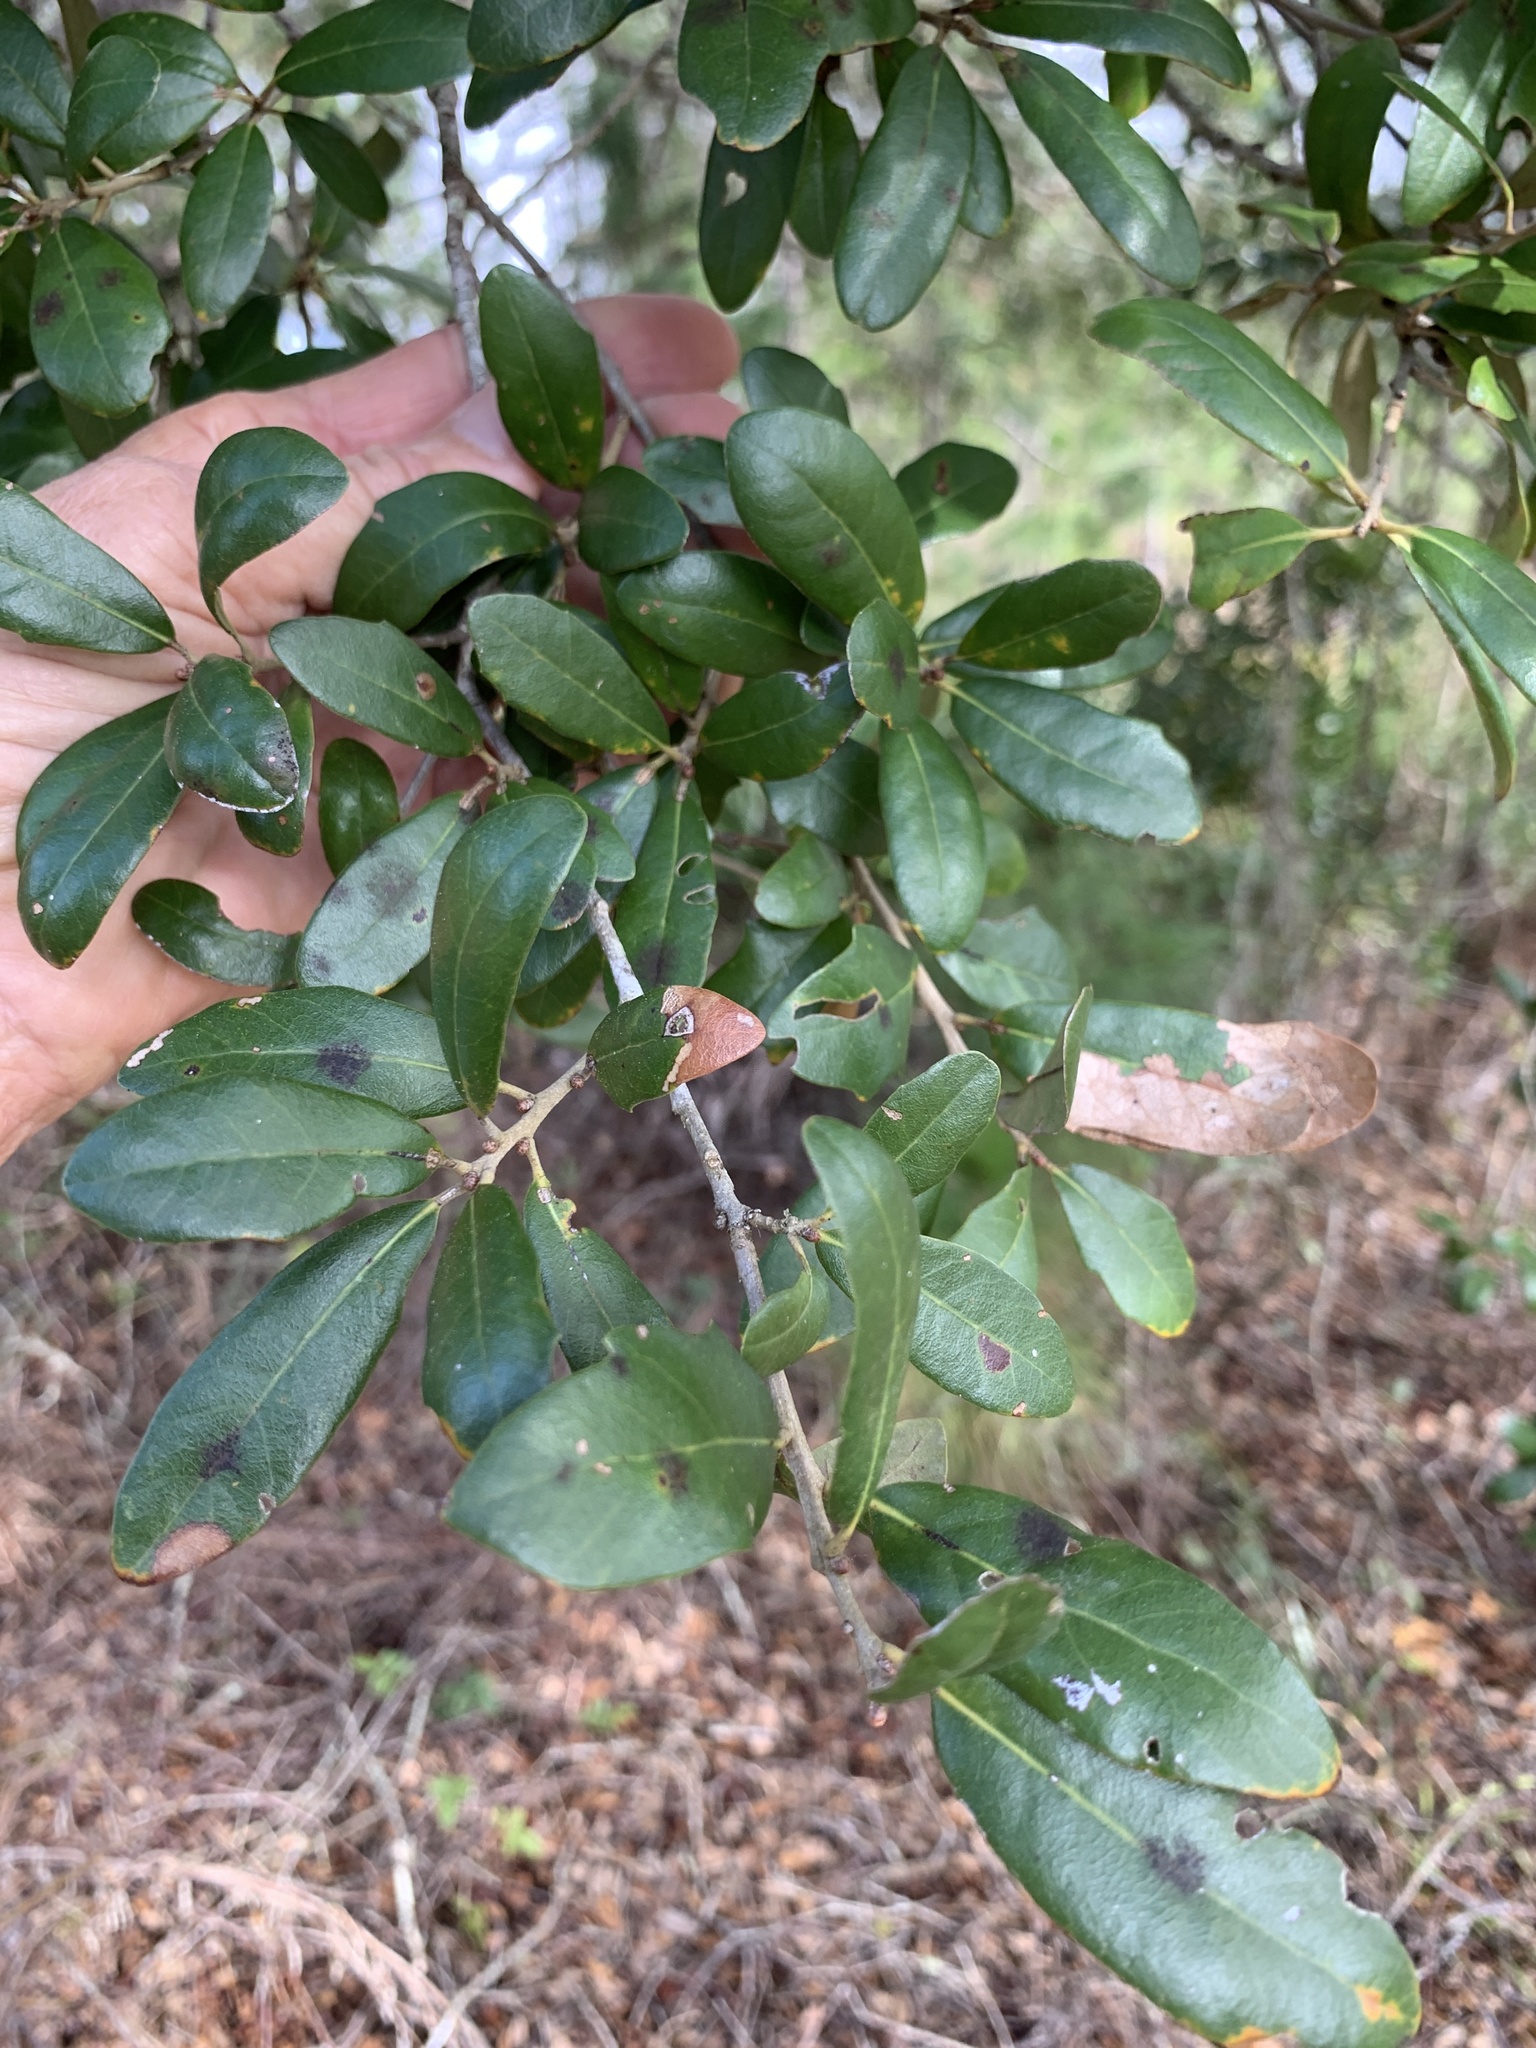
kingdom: Plantae
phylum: Tracheophyta
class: Magnoliopsida
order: Fagales
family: Fagaceae
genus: Quercus
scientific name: Quercus virginiana
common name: Southern live oak
